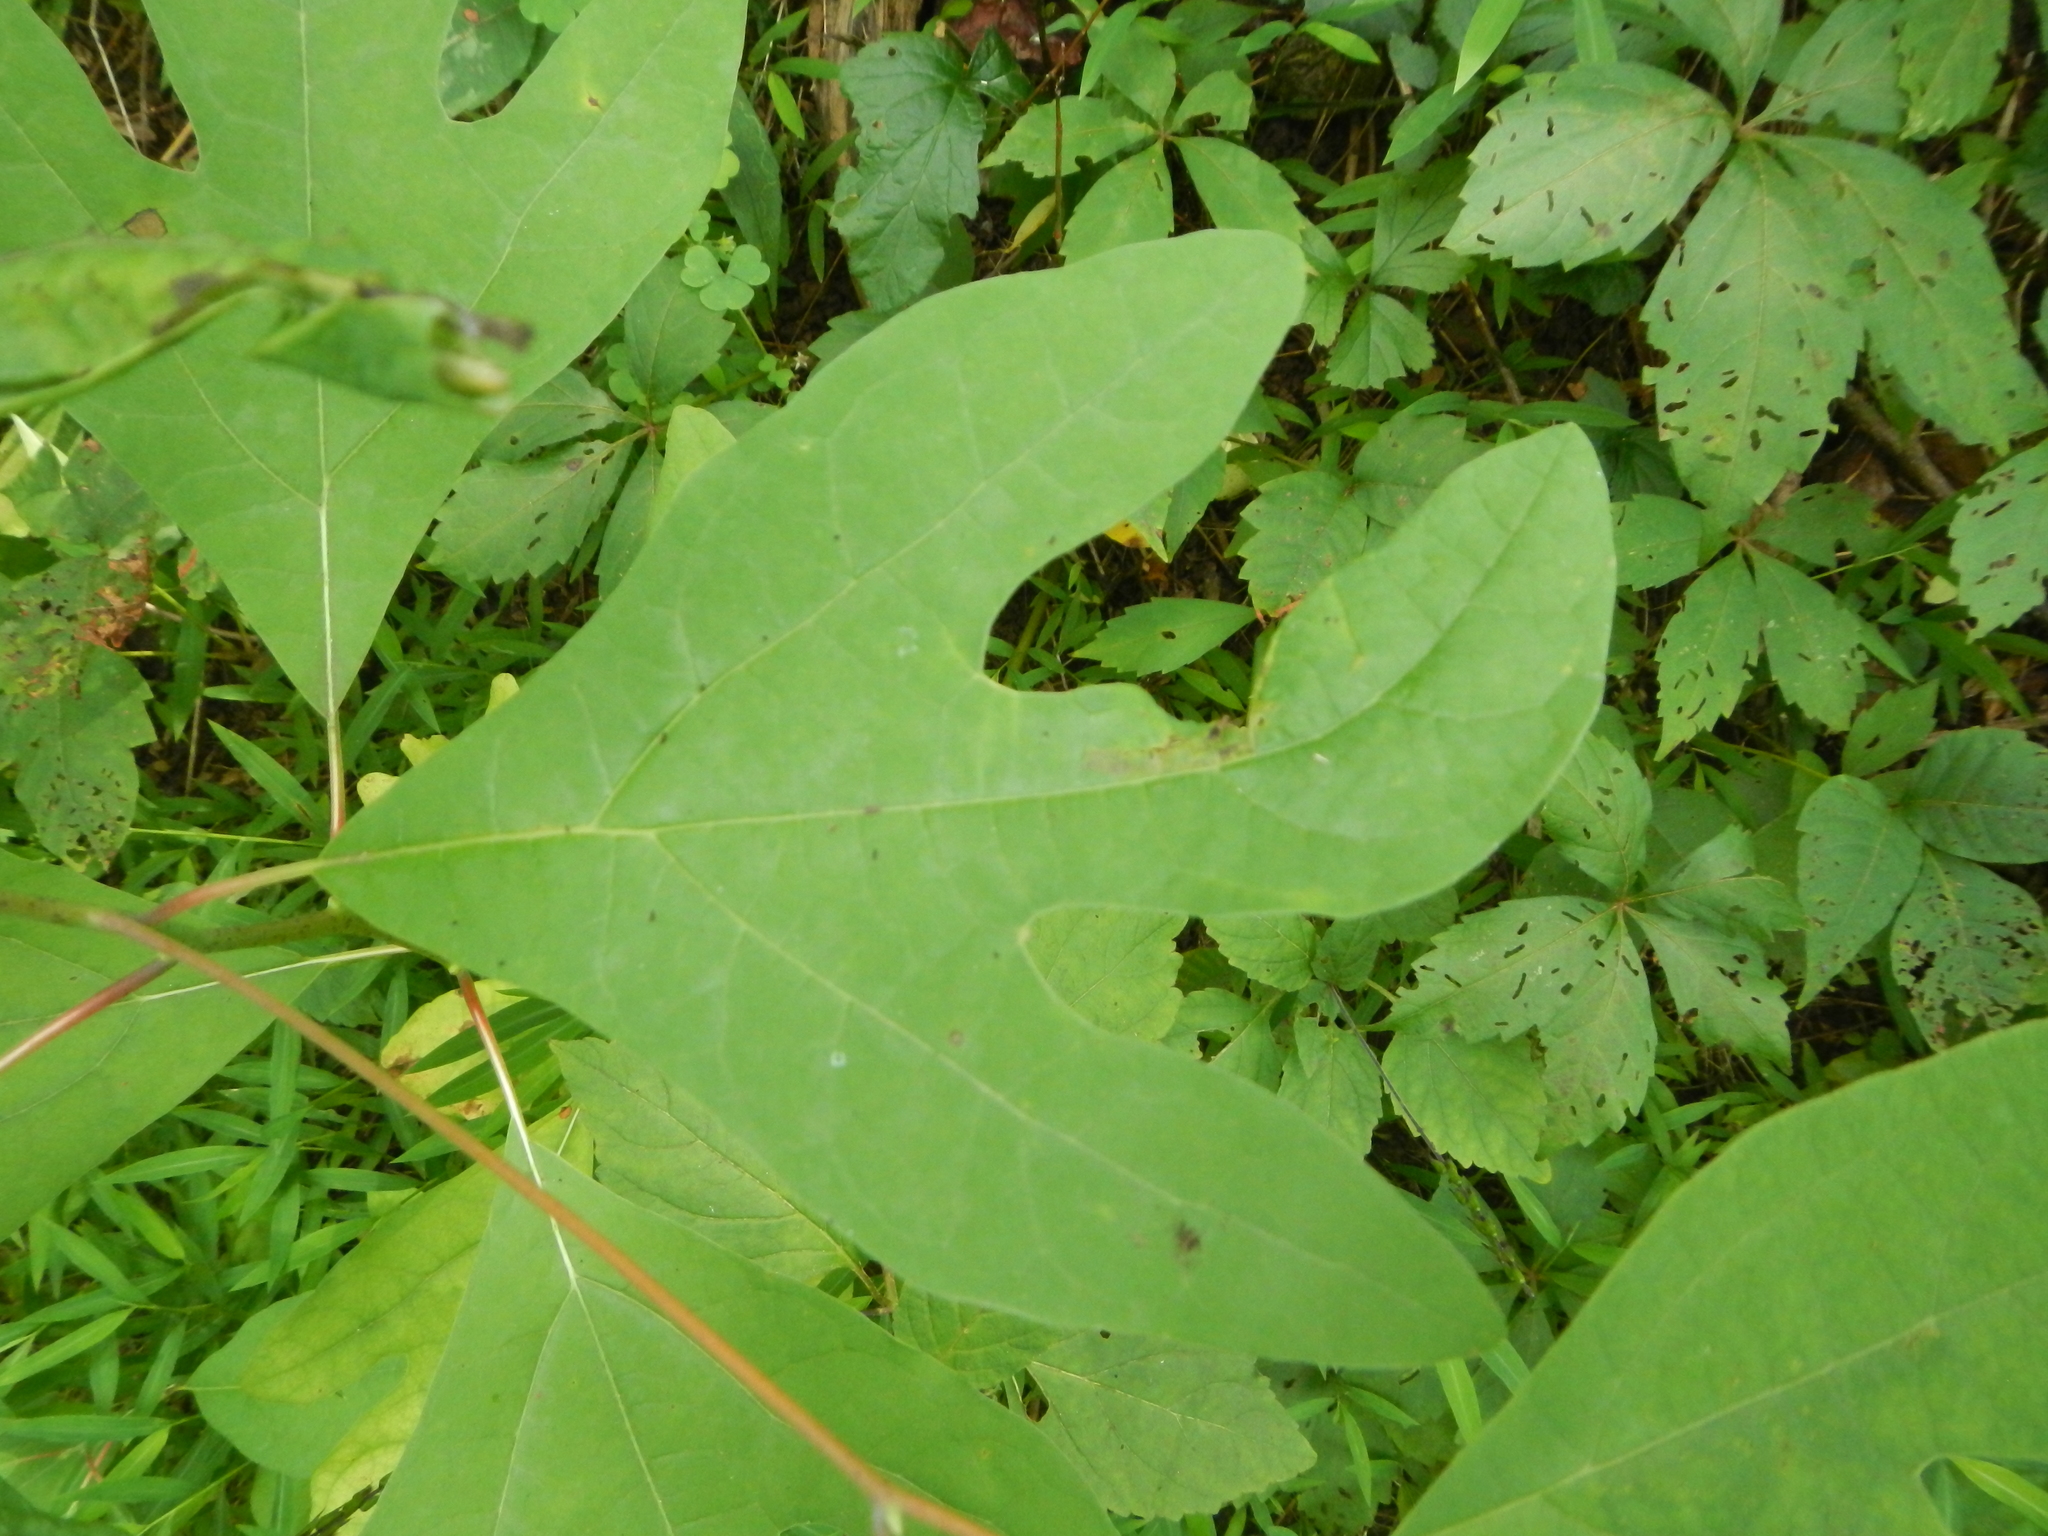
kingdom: Plantae
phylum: Tracheophyta
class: Magnoliopsida
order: Laurales
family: Lauraceae
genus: Sassafras
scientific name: Sassafras albidum
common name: Sassafras
